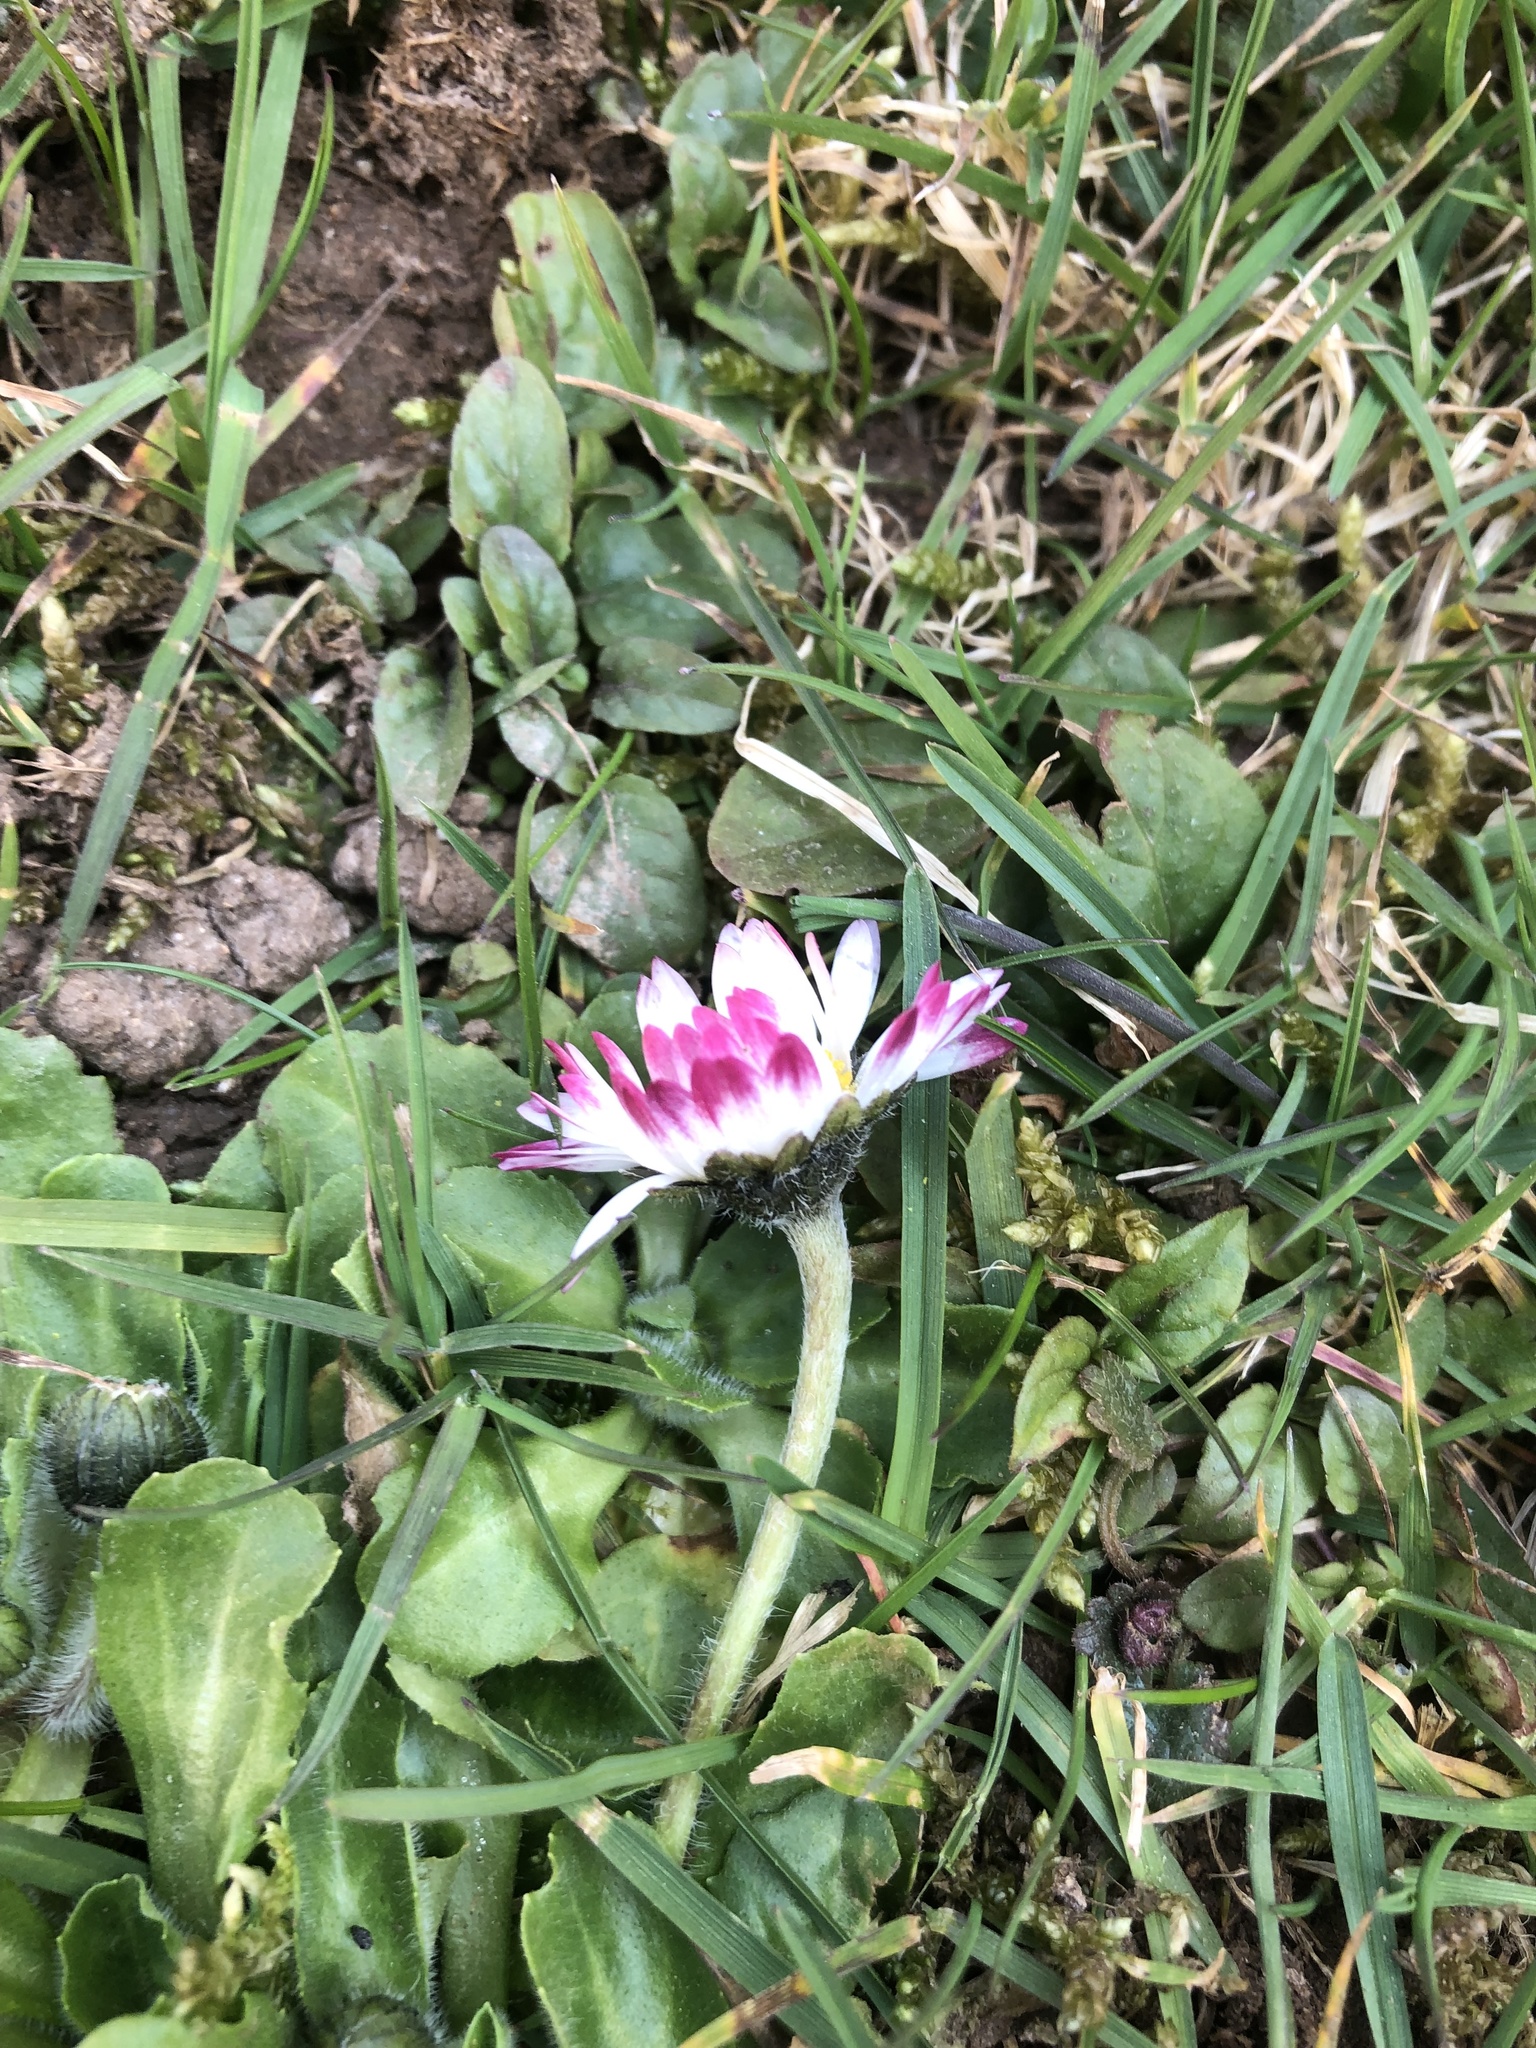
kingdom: Plantae
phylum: Tracheophyta
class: Magnoliopsida
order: Asterales
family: Asteraceae
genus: Bellis
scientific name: Bellis perennis
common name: Lawndaisy
